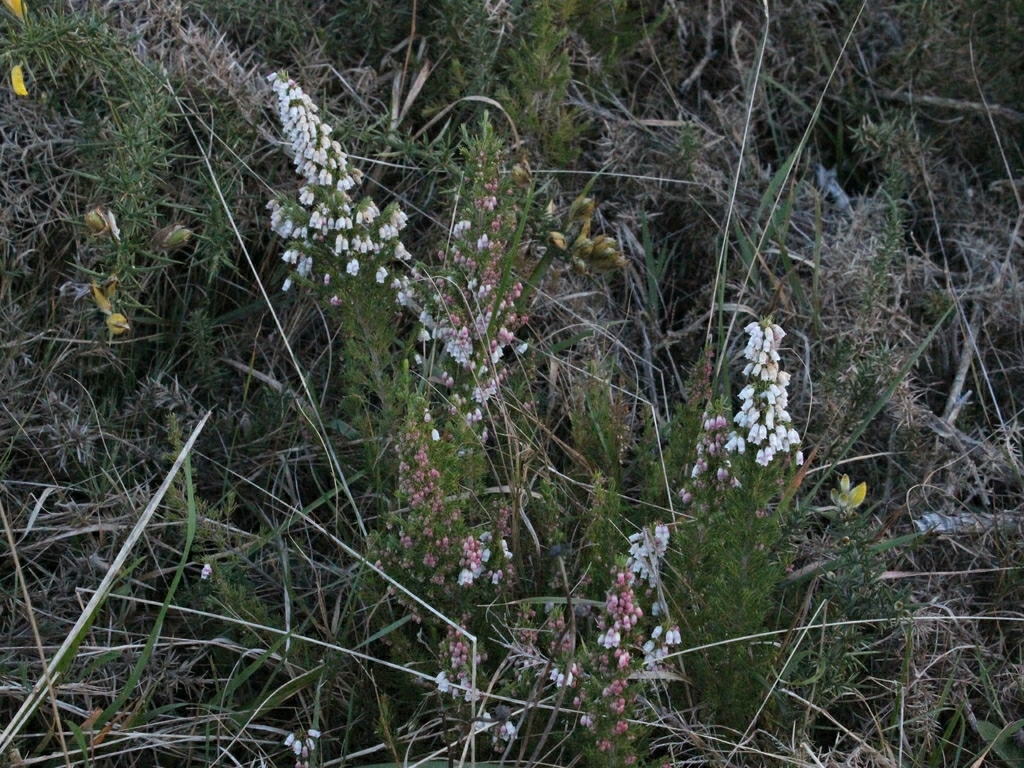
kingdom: Plantae
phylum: Tracheophyta
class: Magnoliopsida
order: Fabales
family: Fabaceae
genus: Ulex
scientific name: Ulex europaeus
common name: Common gorse
